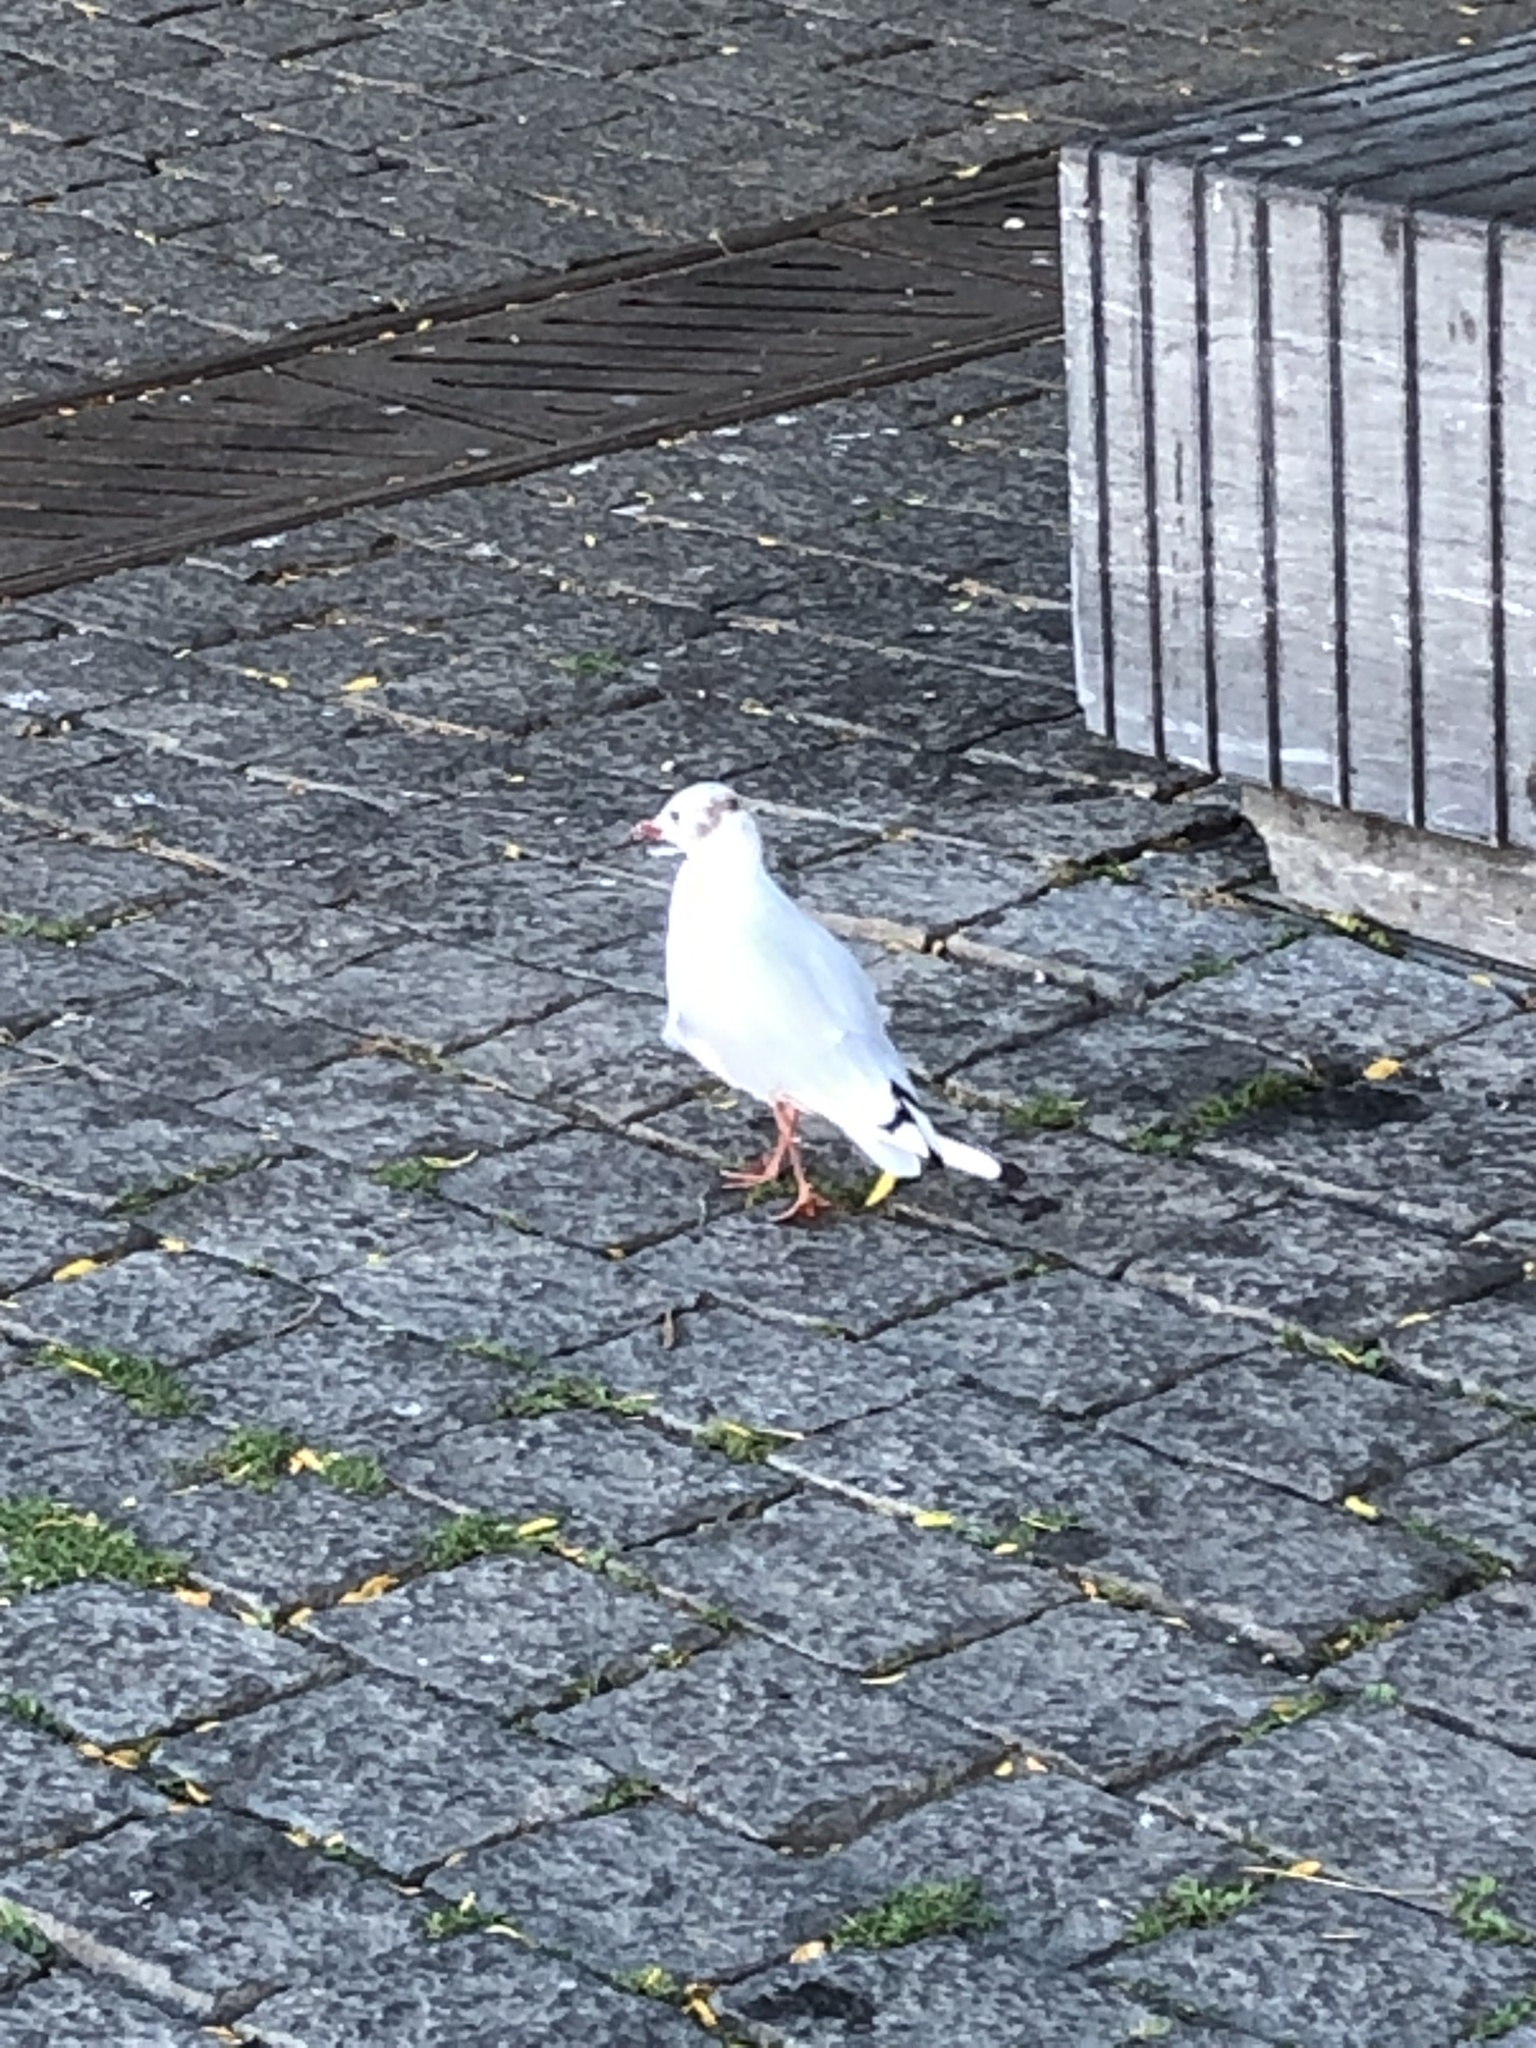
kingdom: Animalia
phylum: Chordata
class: Aves
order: Charadriiformes
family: Laridae
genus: Chroicocephalus
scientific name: Chroicocephalus ridibundus
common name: Black-headed gull
